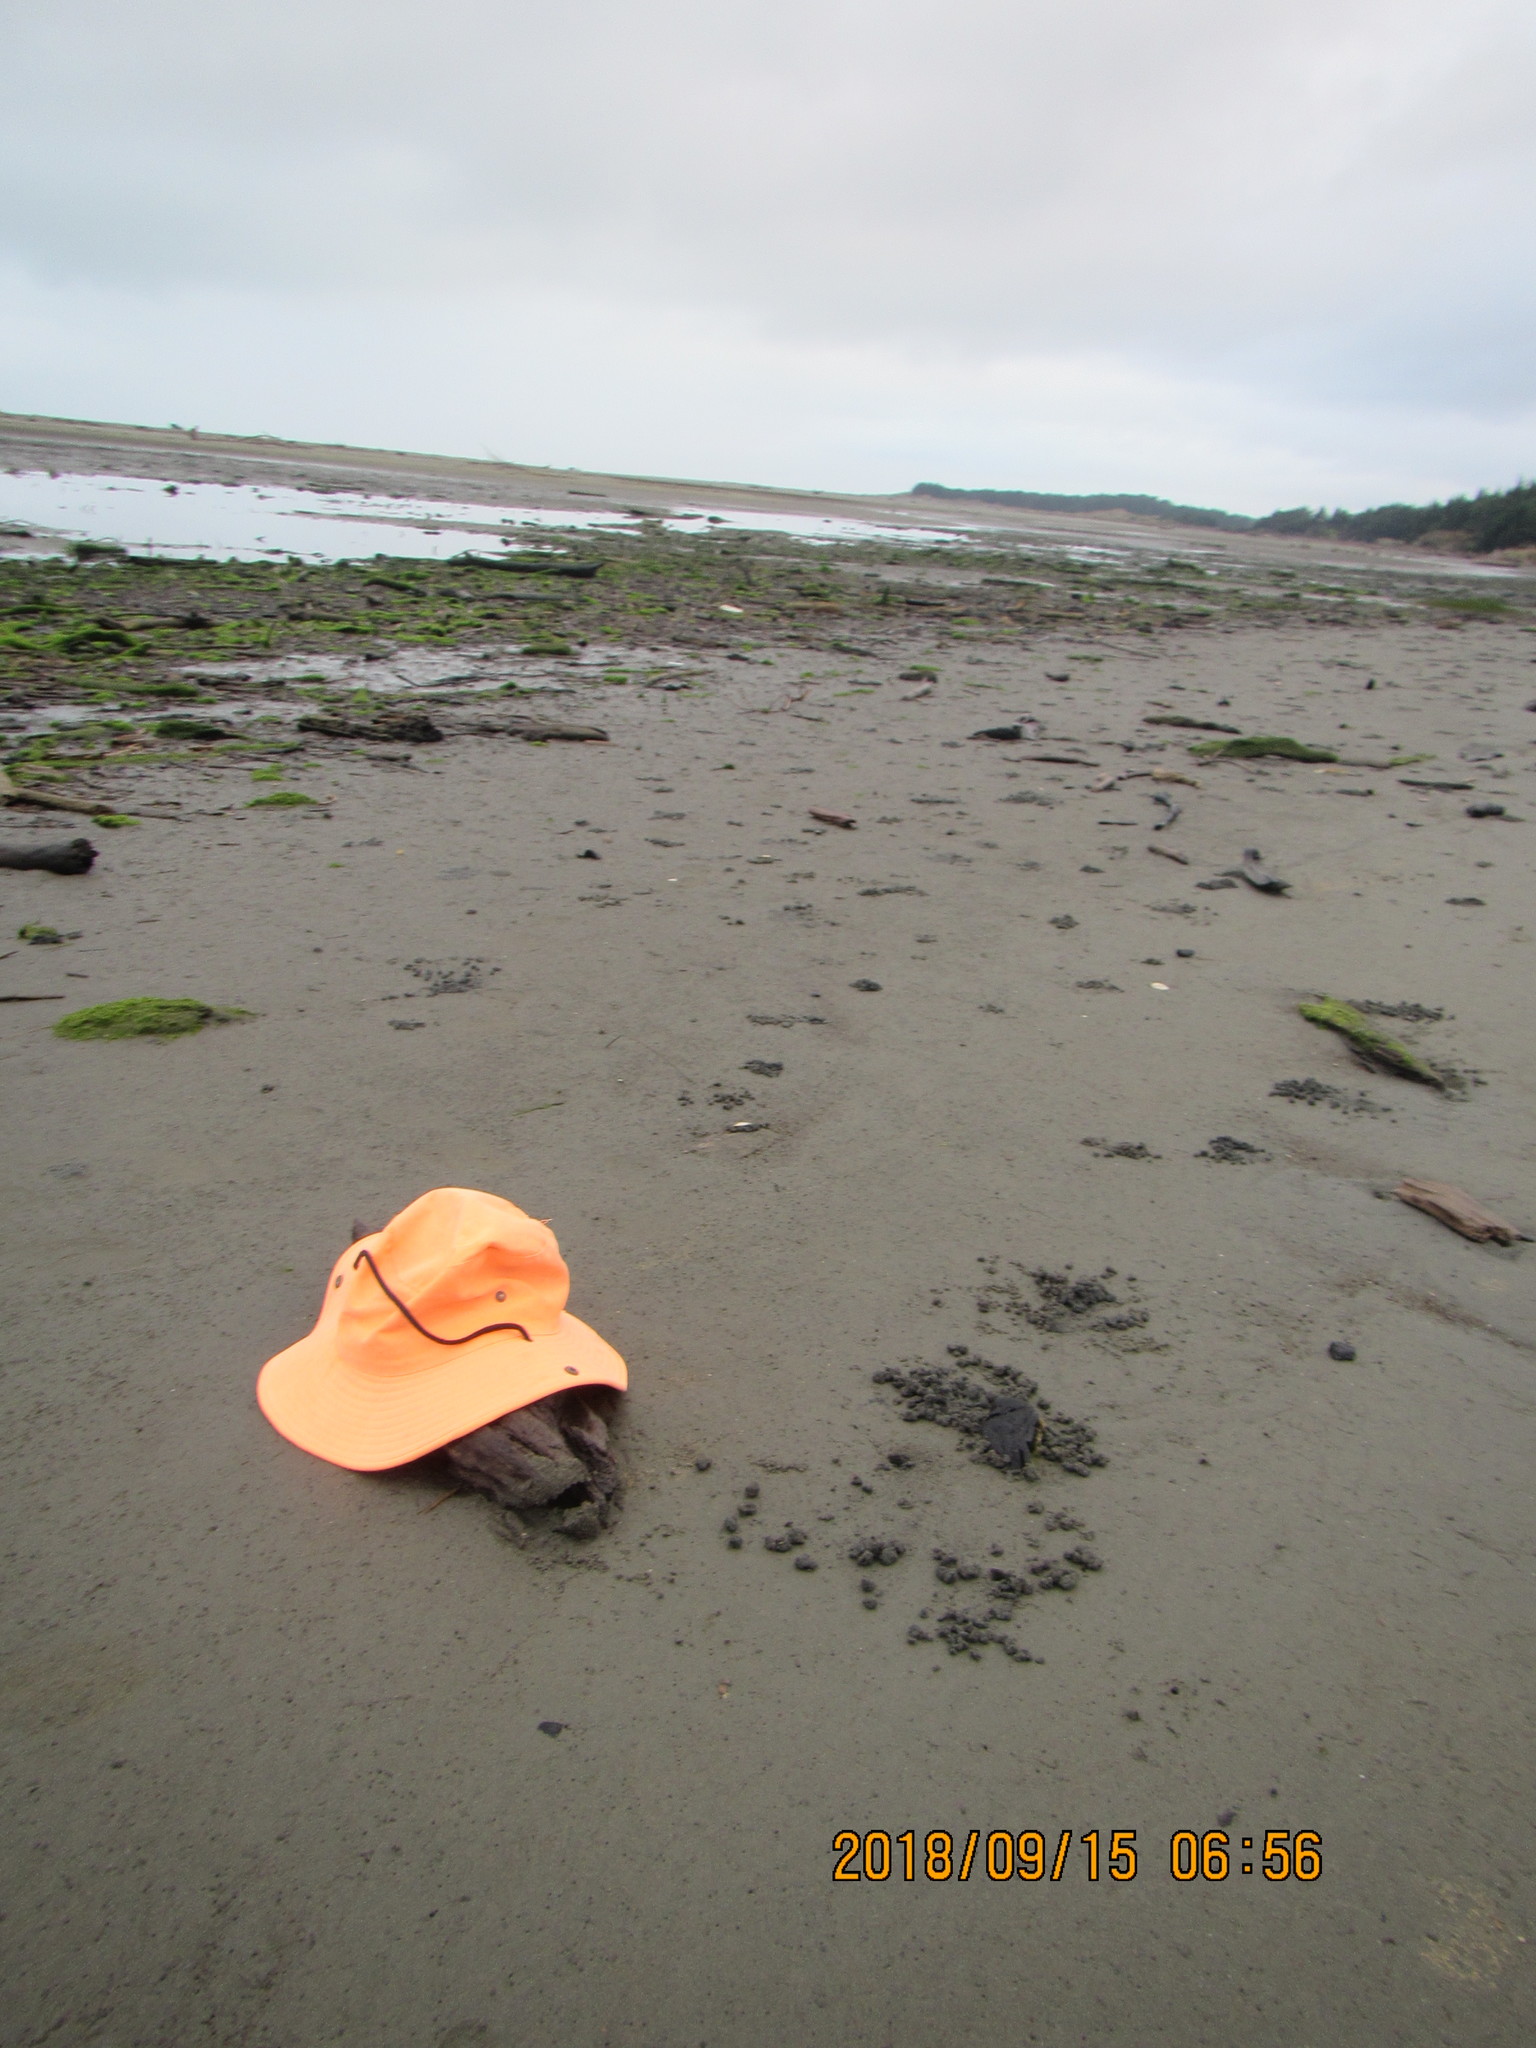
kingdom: Animalia
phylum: Arthropoda
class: Malacostraca
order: Decapoda
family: Varunidae
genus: Austrohelice
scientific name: Austrohelice crassa
